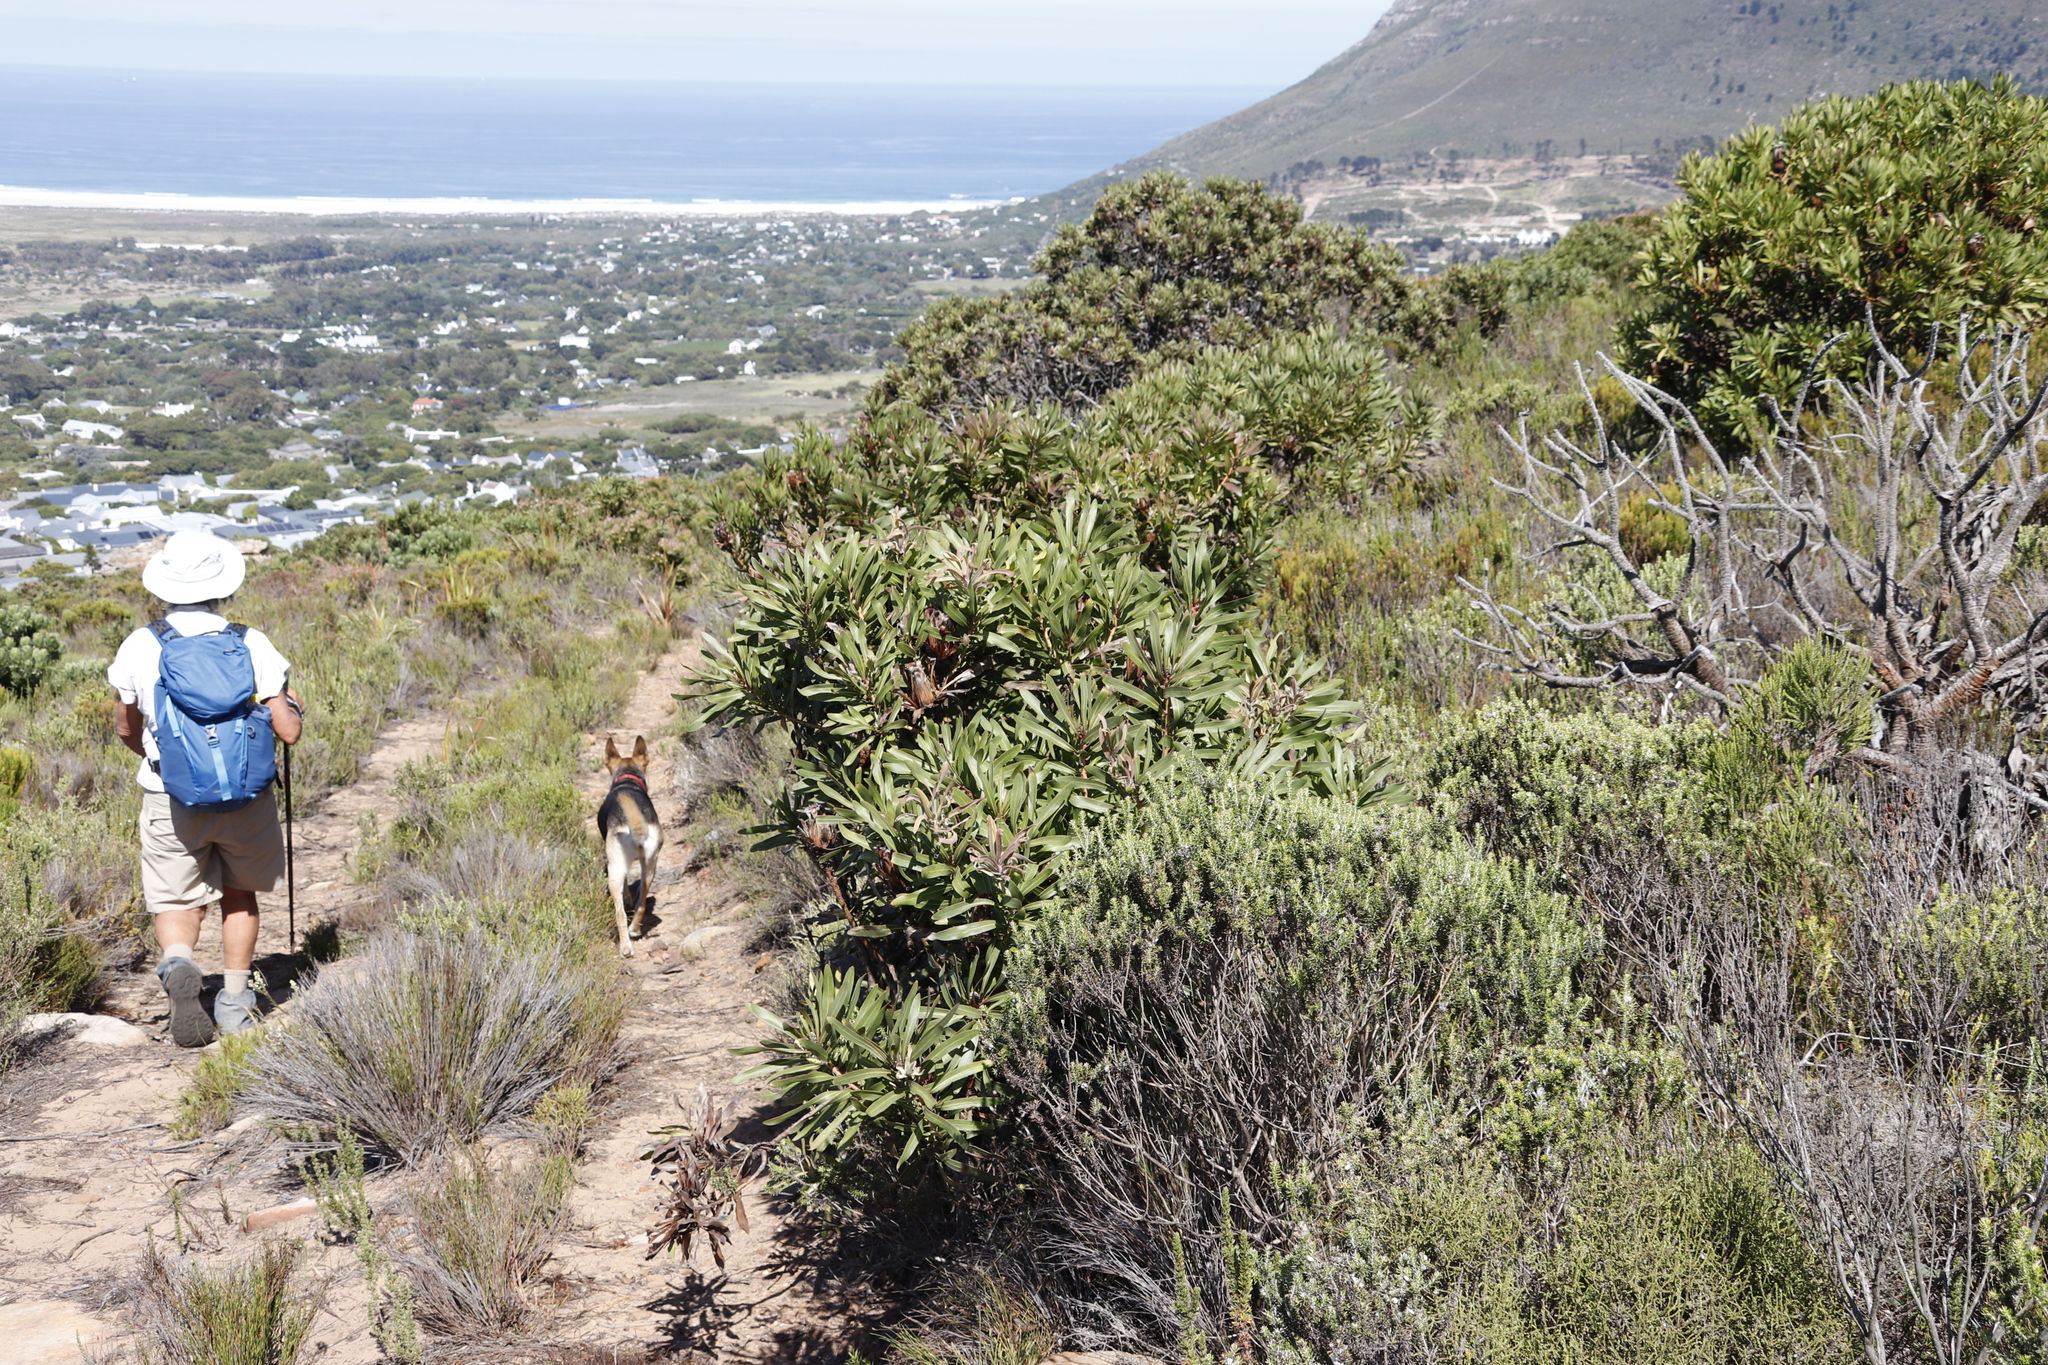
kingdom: Plantae
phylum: Tracheophyta
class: Magnoliopsida
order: Proteales
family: Proteaceae
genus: Protea
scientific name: Protea lepidocarpodendron
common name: Black-bearded protea
